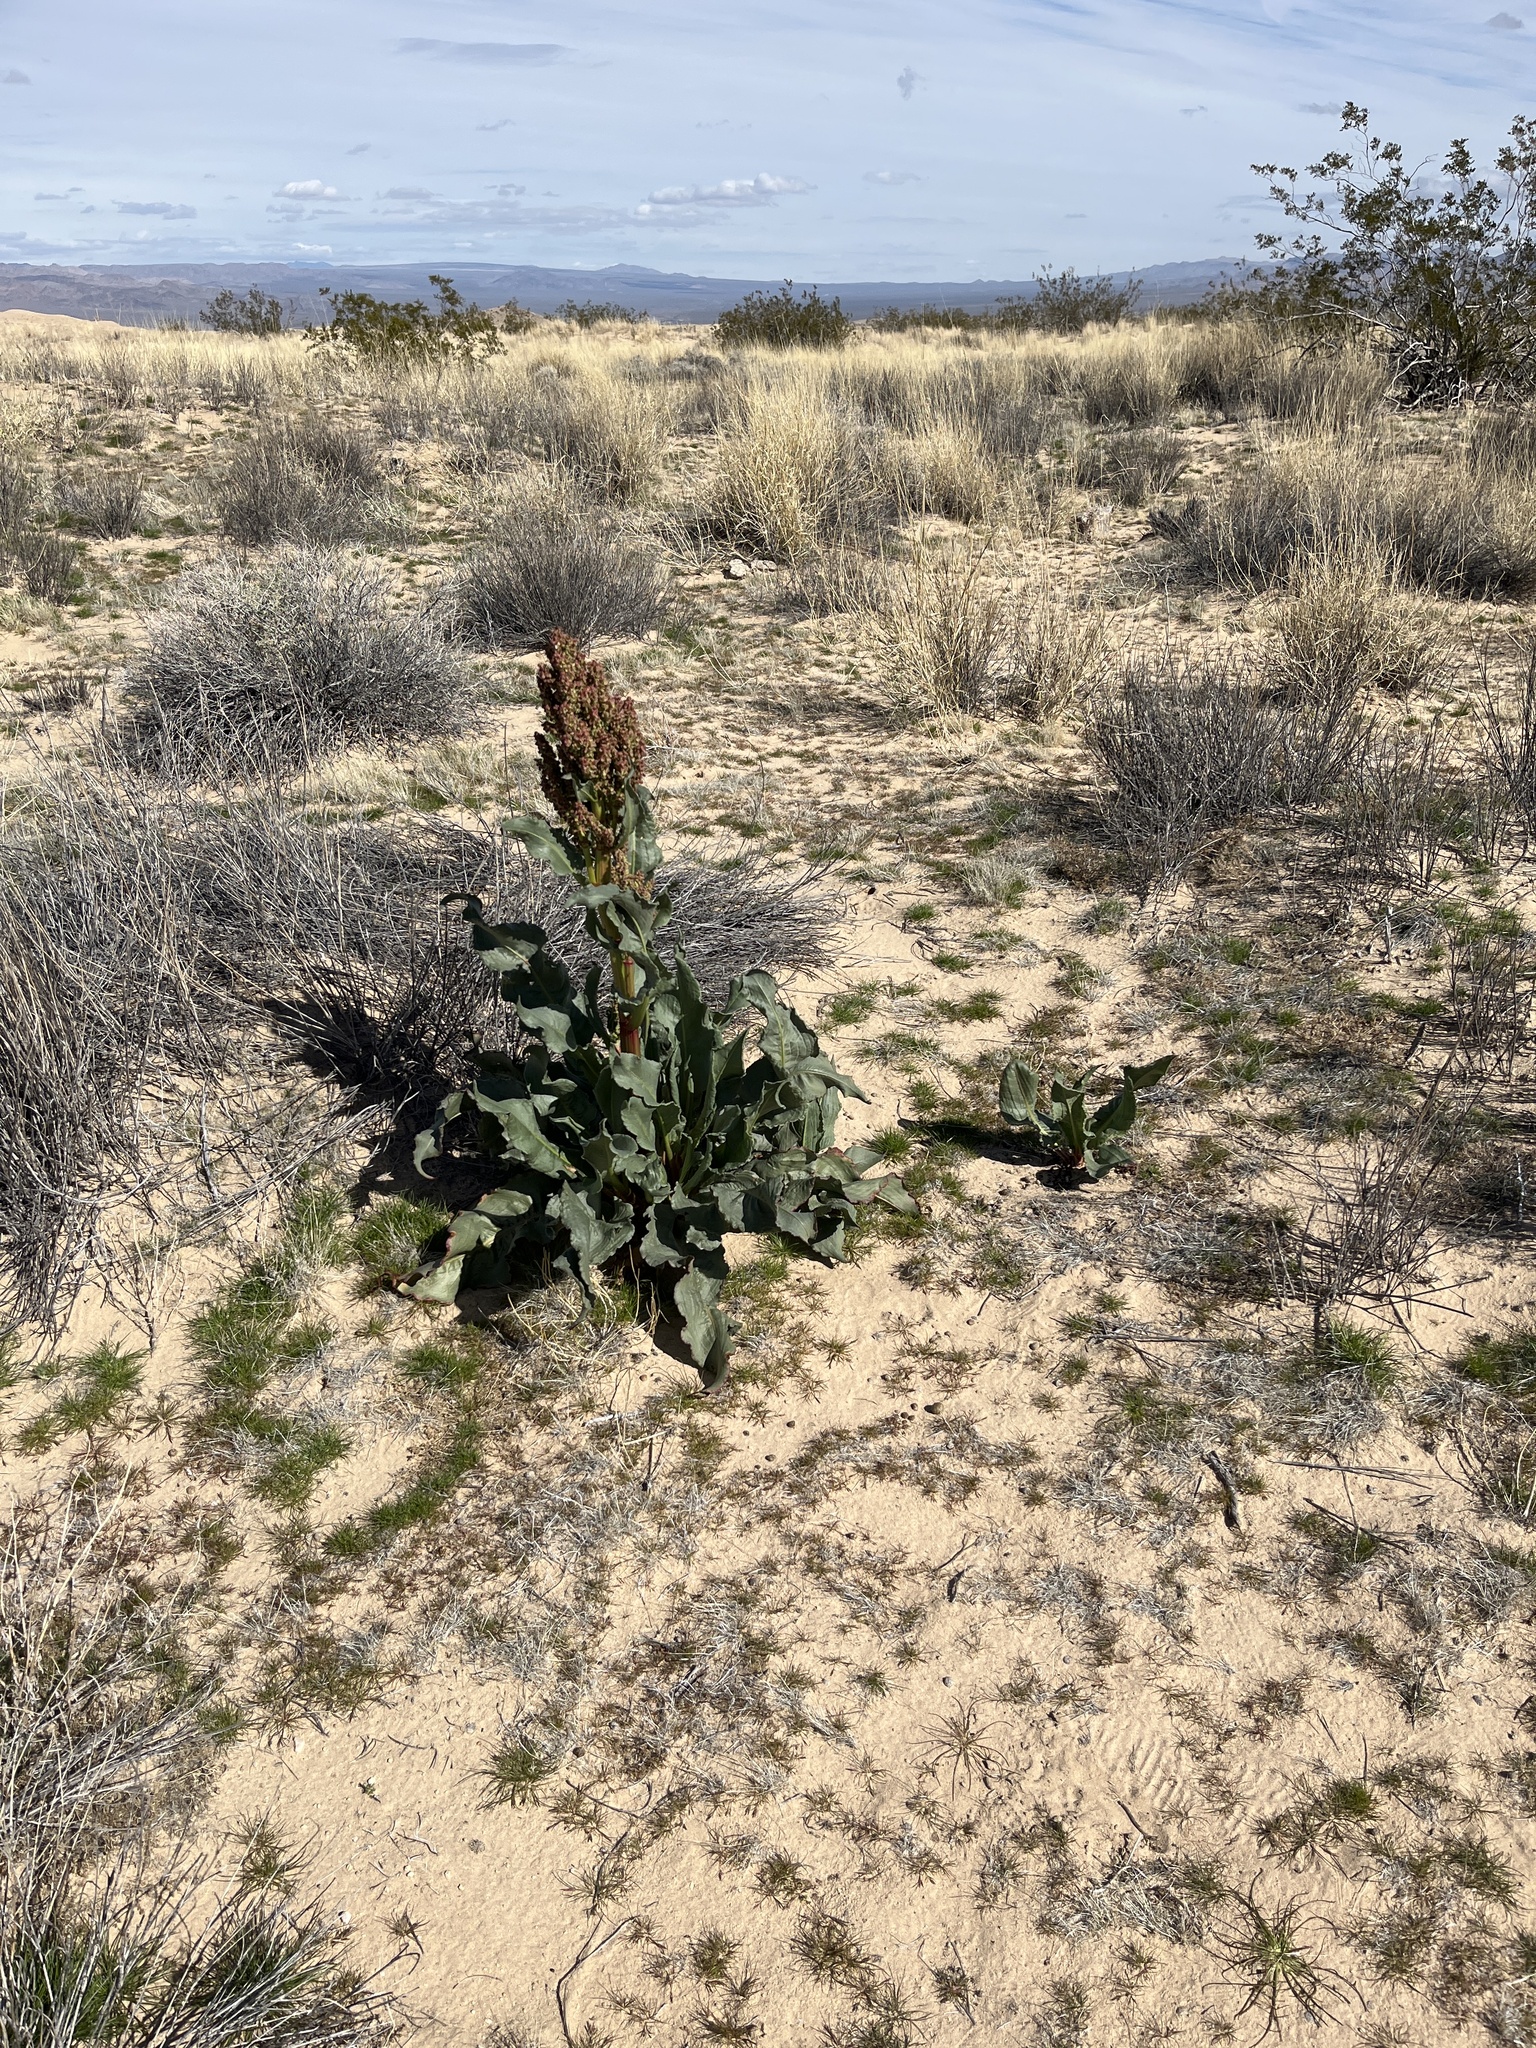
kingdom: Plantae
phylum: Tracheophyta
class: Magnoliopsida
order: Caryophyllales
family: Polygonaceae
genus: Rumex
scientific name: Rumex hymenosepalus
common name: Ganagra
